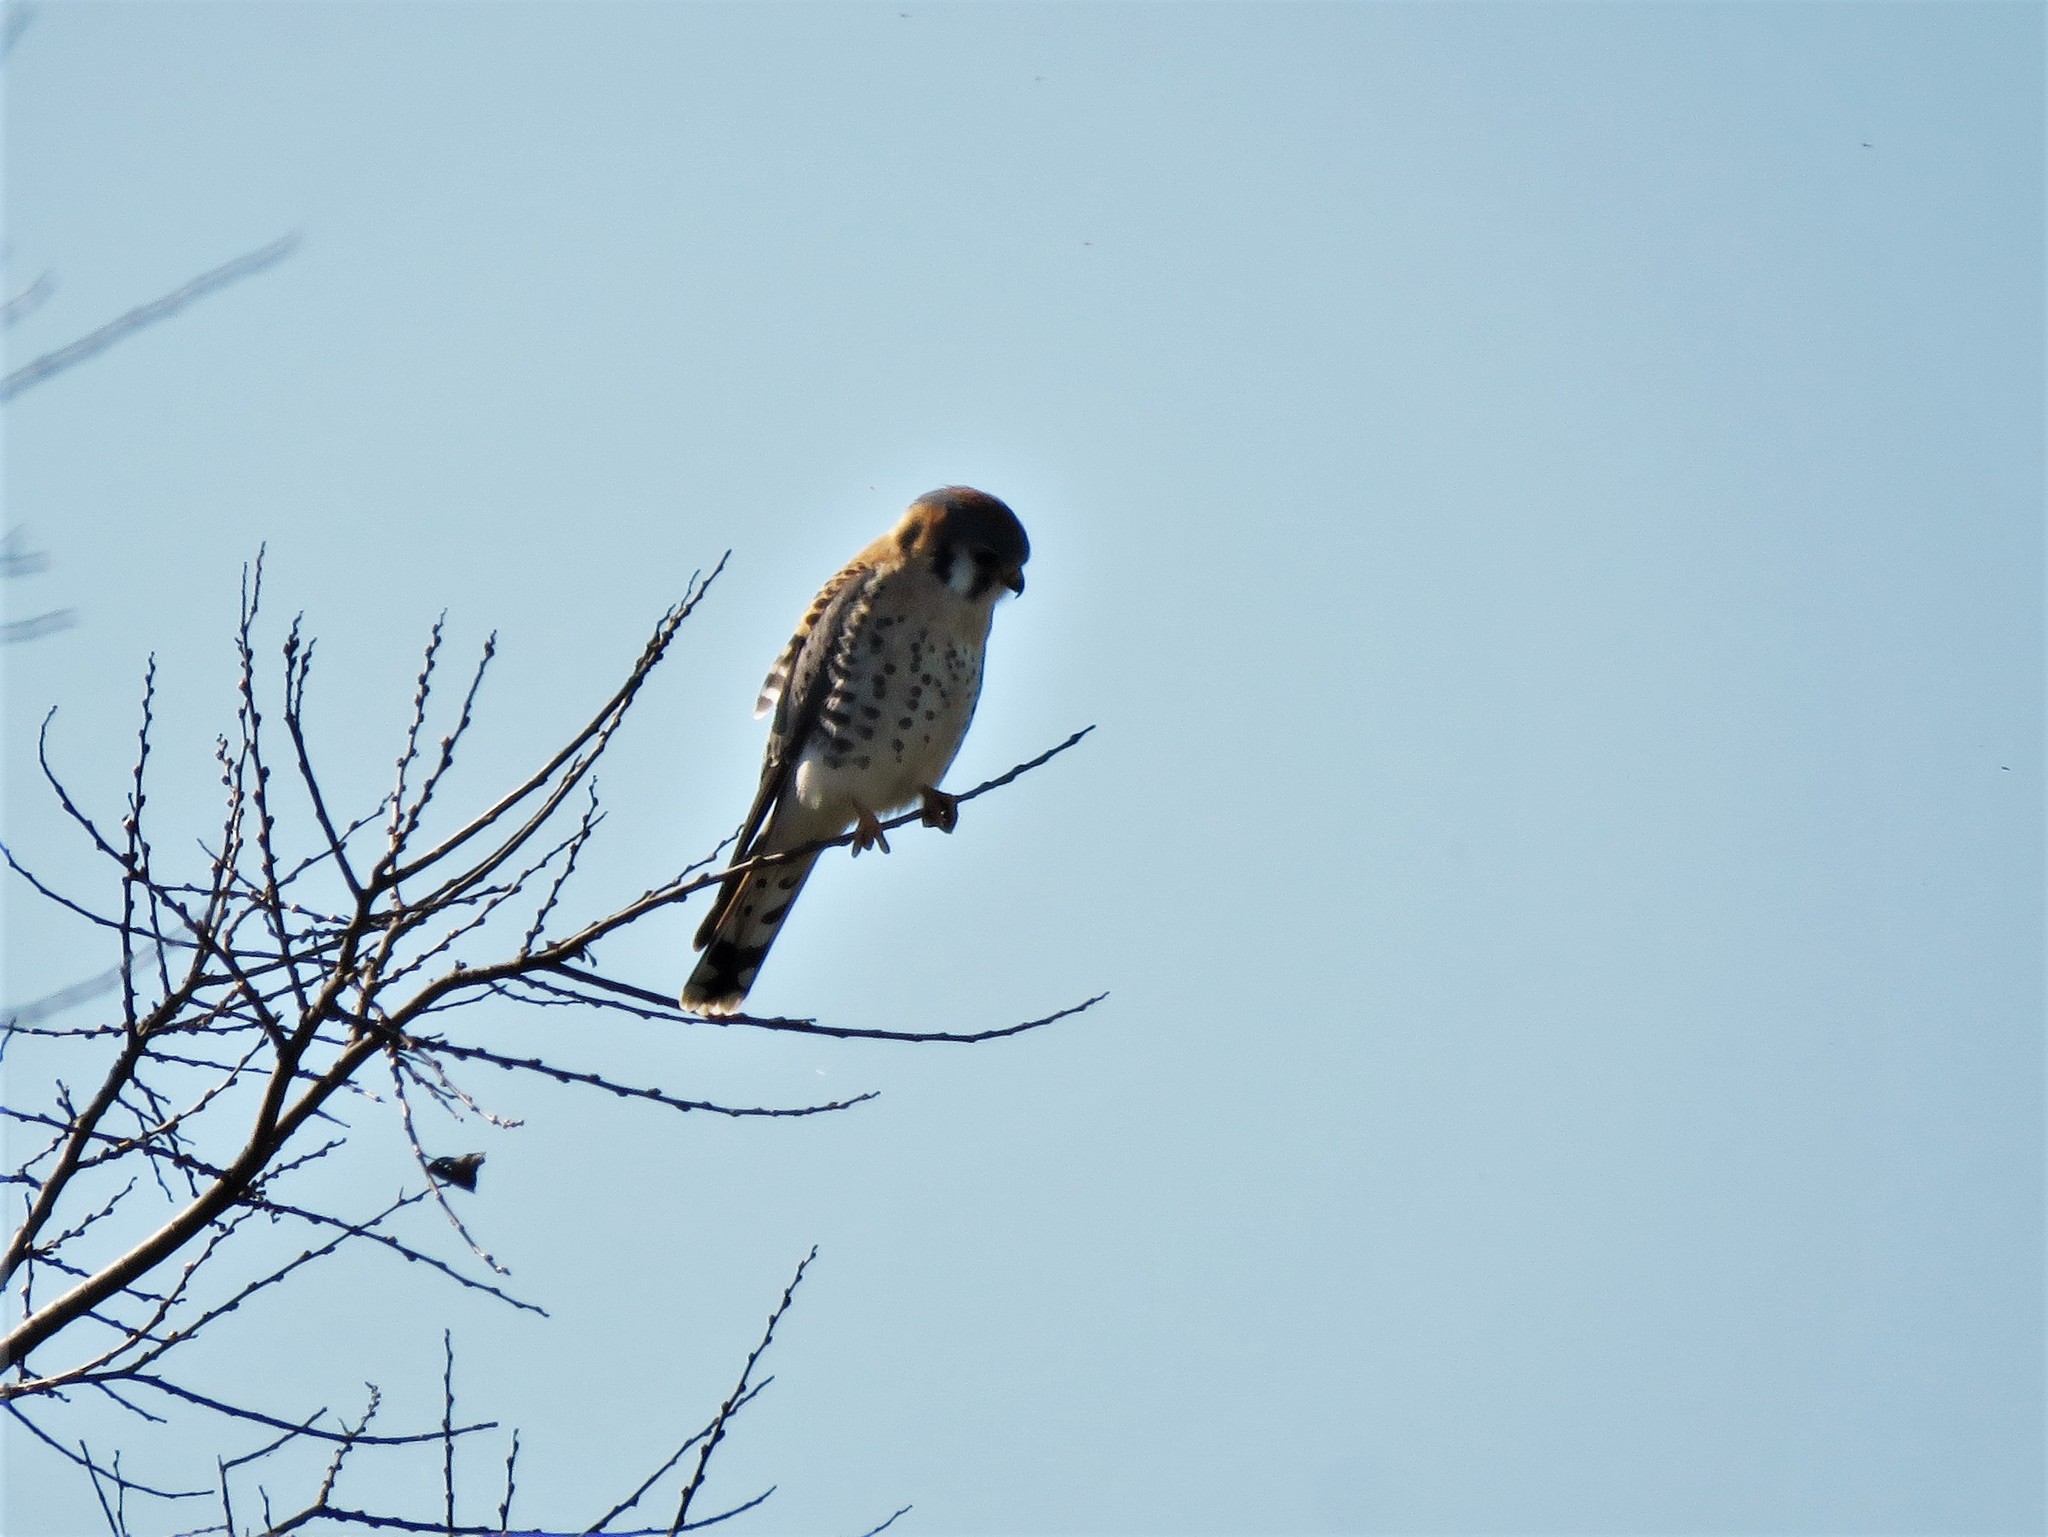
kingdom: Animalia
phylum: Chordata
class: Aves
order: Falconiformes
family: Falconidae
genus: Falco
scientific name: Falco sparverius
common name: American kestrel
